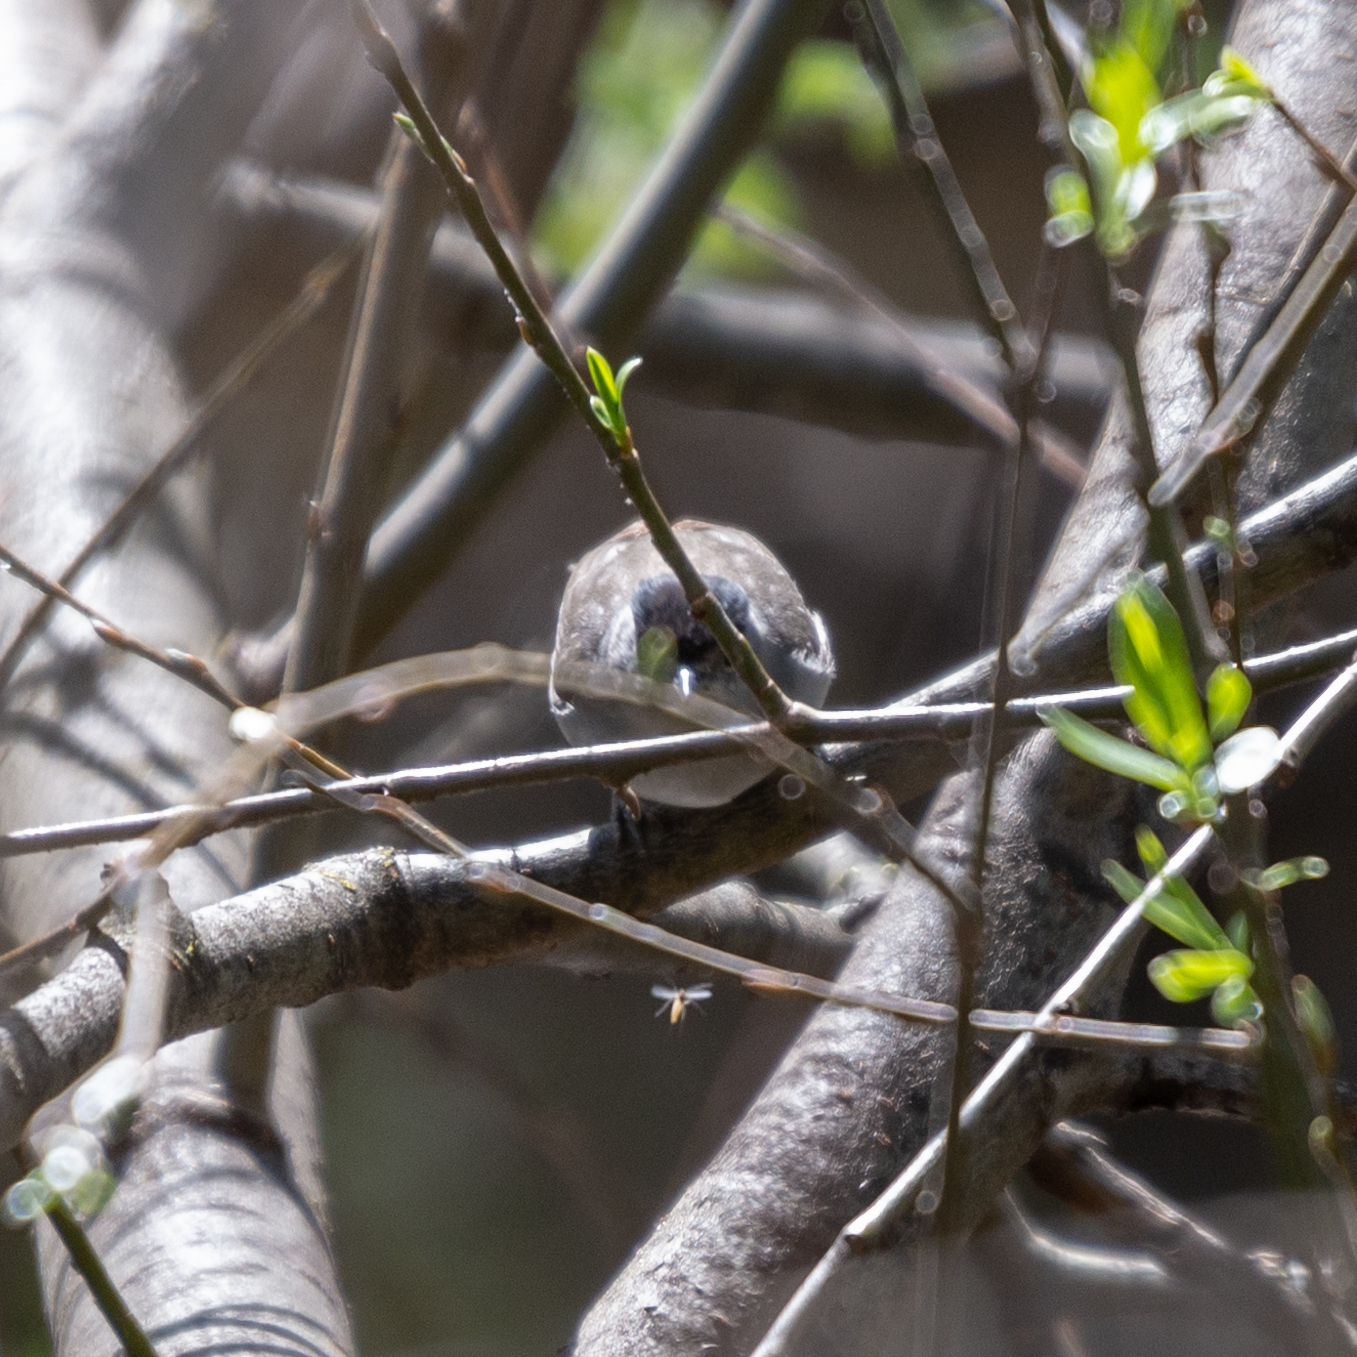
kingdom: Animalia
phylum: Chordata
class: Aves
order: Passeriformes
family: Sylviidae
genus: Sylvia
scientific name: Sylvia atricapilla
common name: Eurasian blackcap
